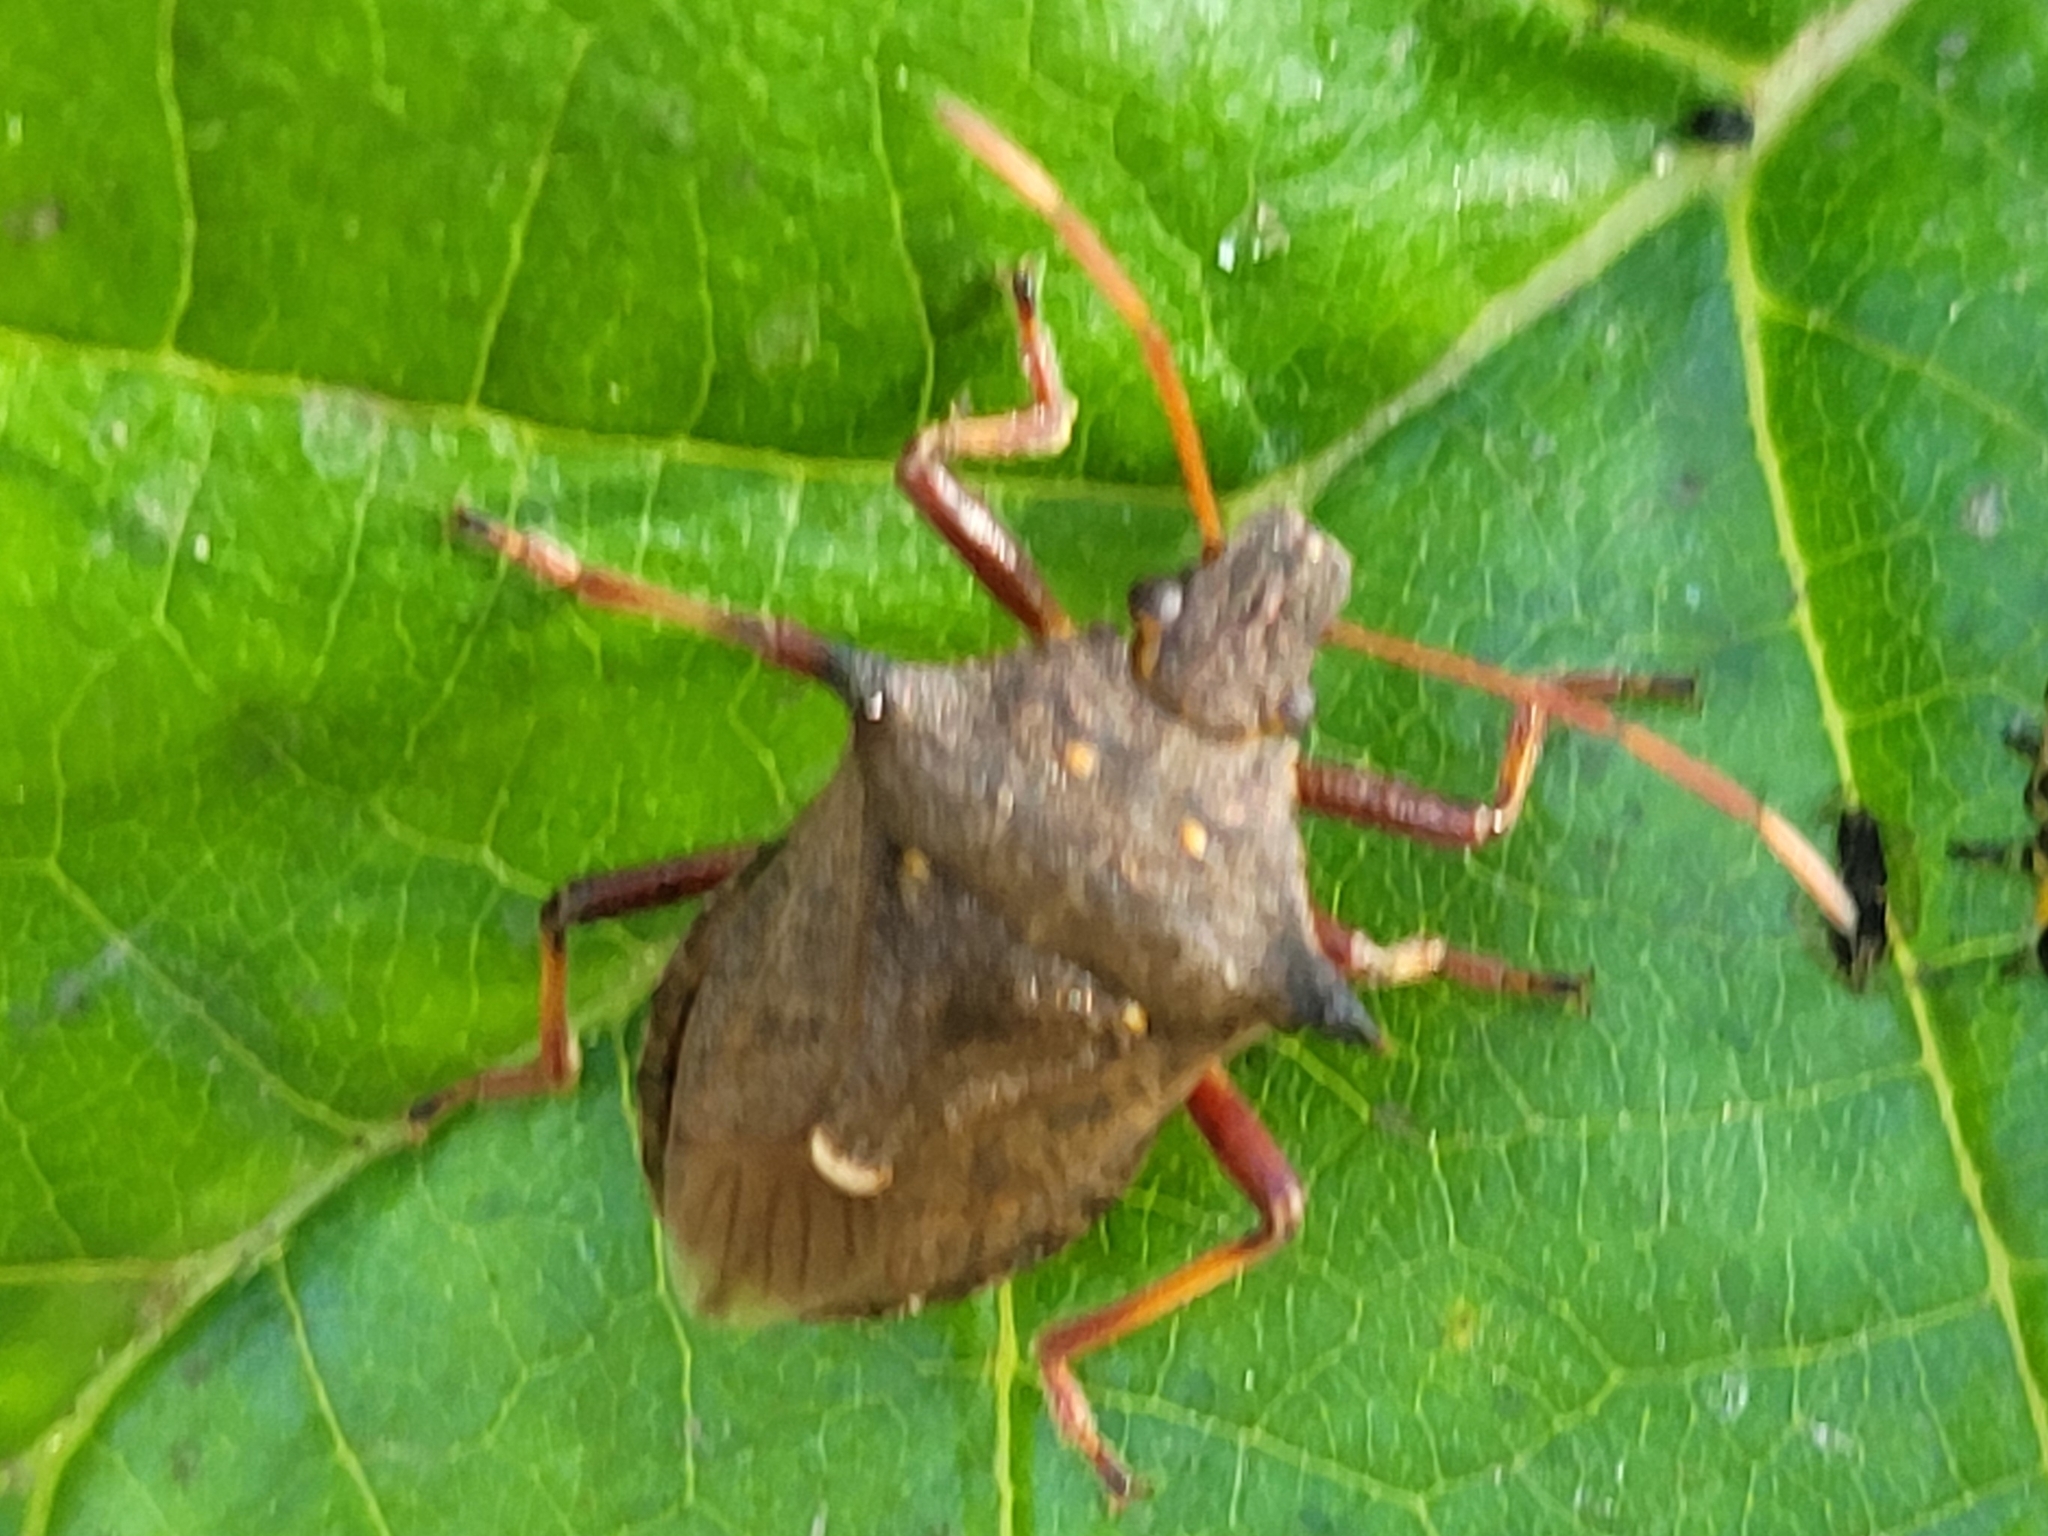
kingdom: Animalia
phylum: Arthropoda
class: Insecta
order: Hemiptera
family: Pentatomidae
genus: Picromerus
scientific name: Picromerus bidens
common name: Spiked shieldbug
